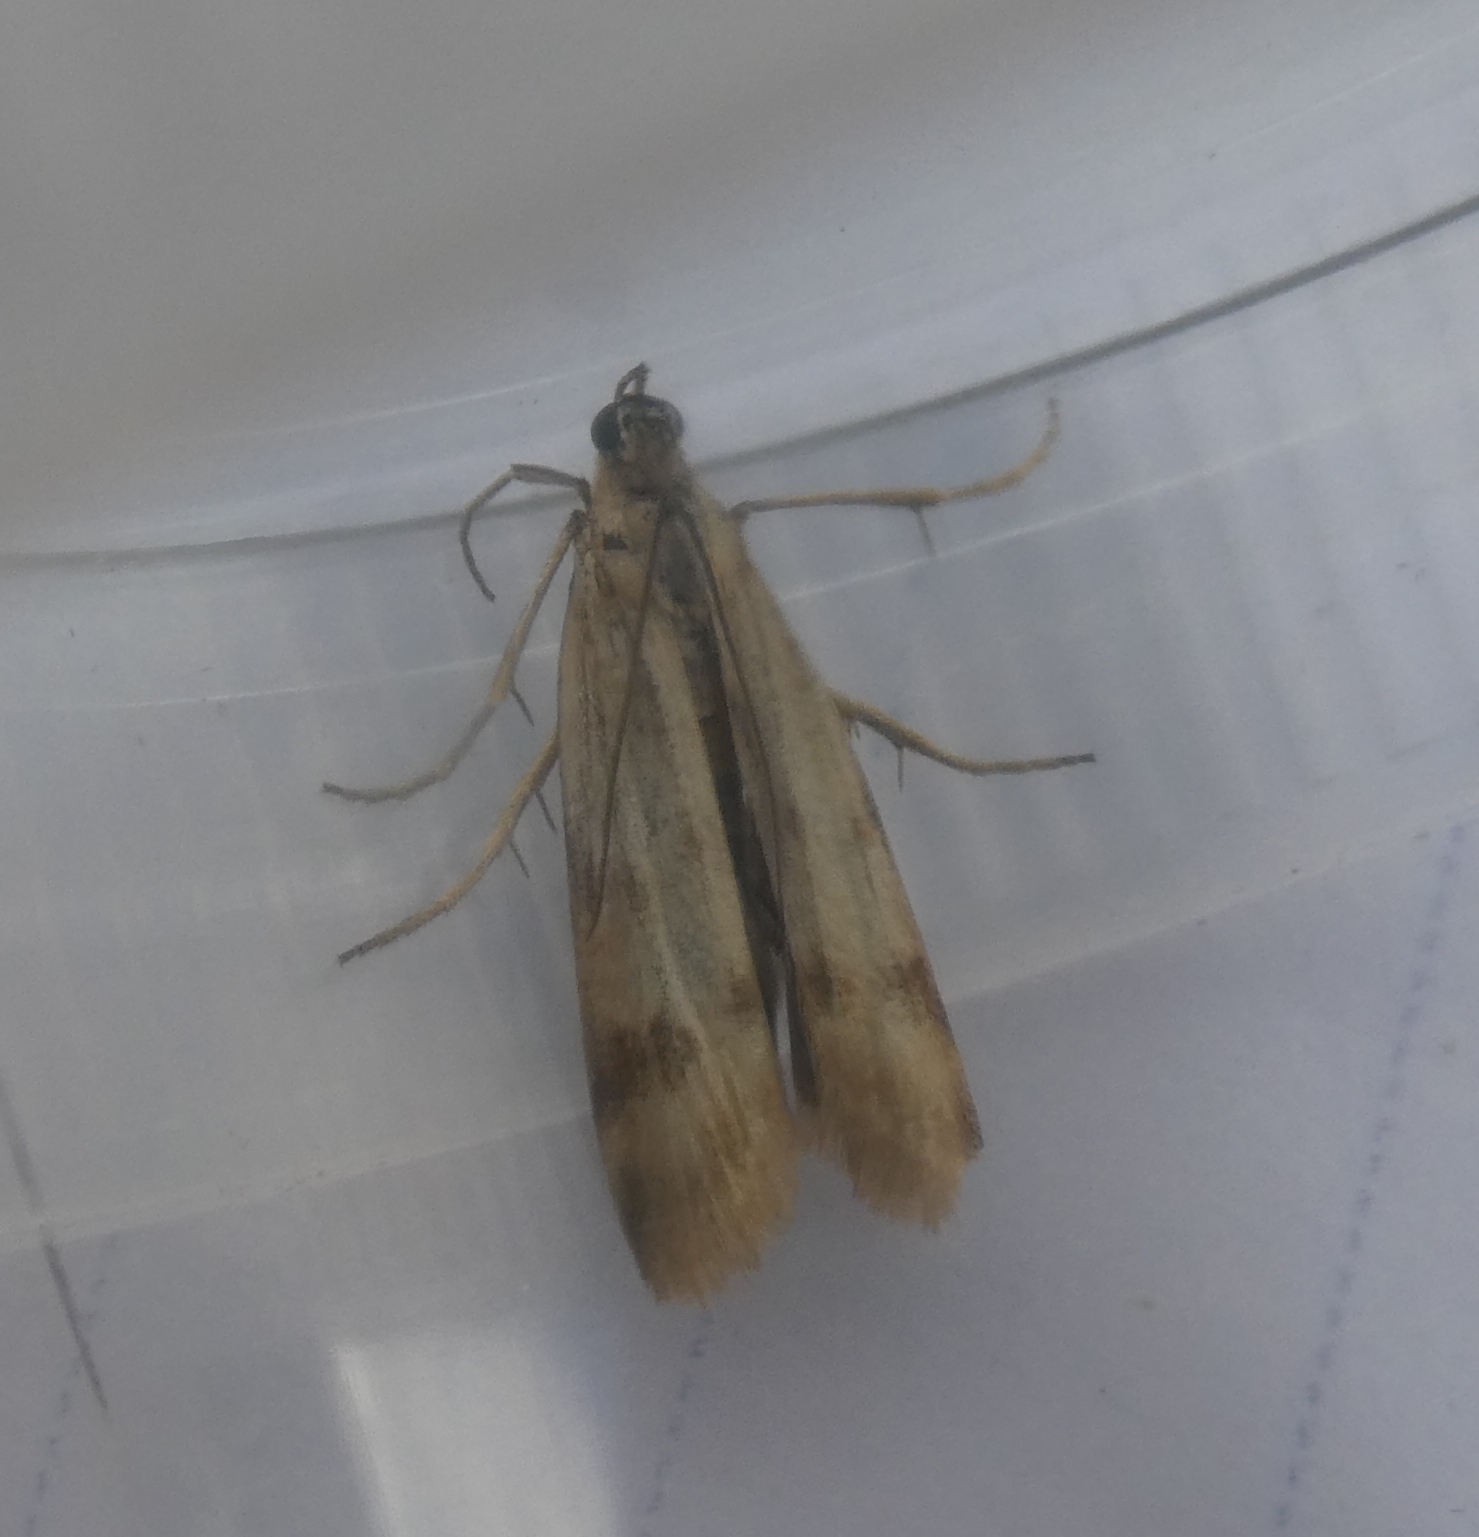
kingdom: Animalia
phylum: Arthropoda
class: Insecta
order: Lepidoptera
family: Pyralidae
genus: Homoeosoma
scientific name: Homoeosoma sinuella
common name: Twin-barred knot-horn
